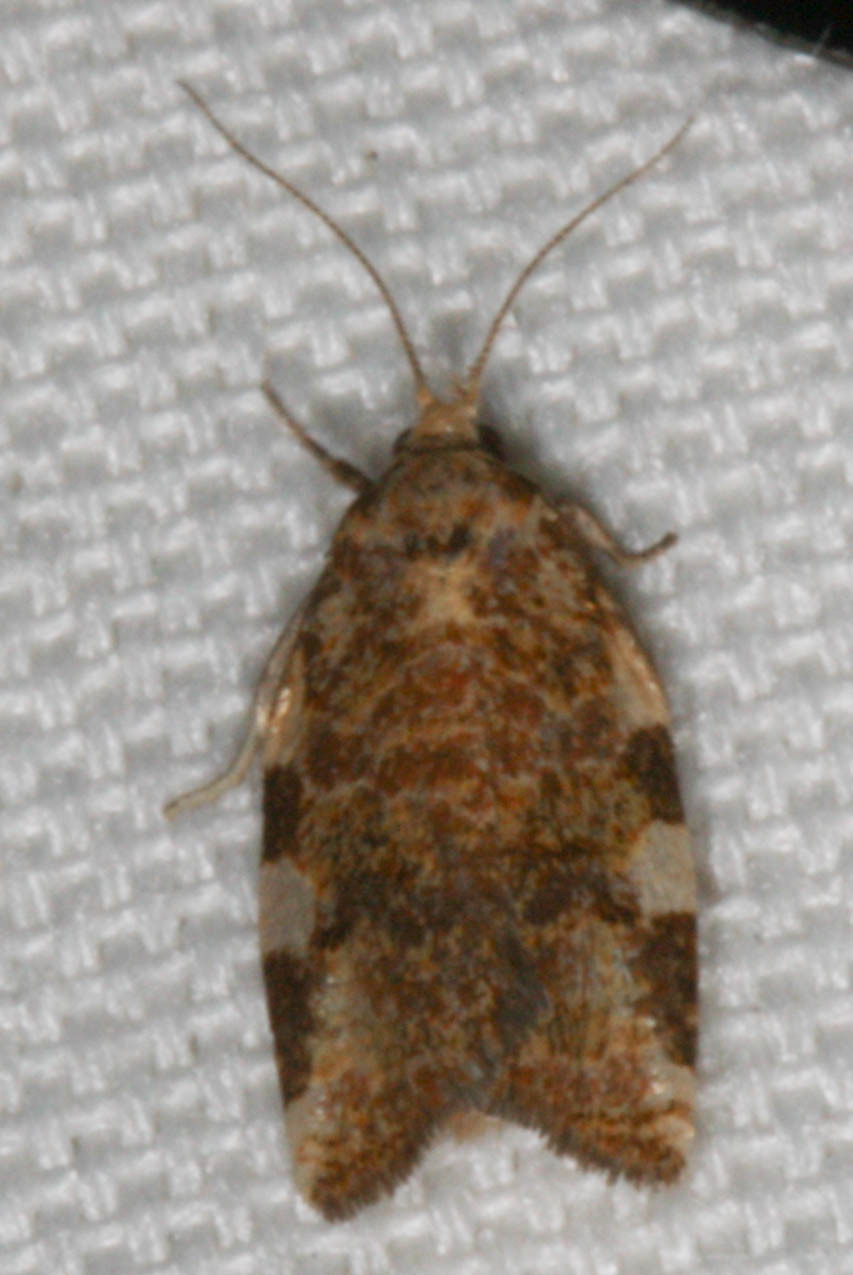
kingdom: Animalia
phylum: Arthropoda
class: Insecta
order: Lepidoptera
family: Tortricidae
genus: Archips
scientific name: Archips argyrospila
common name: Fruit-tree leafroller moth
